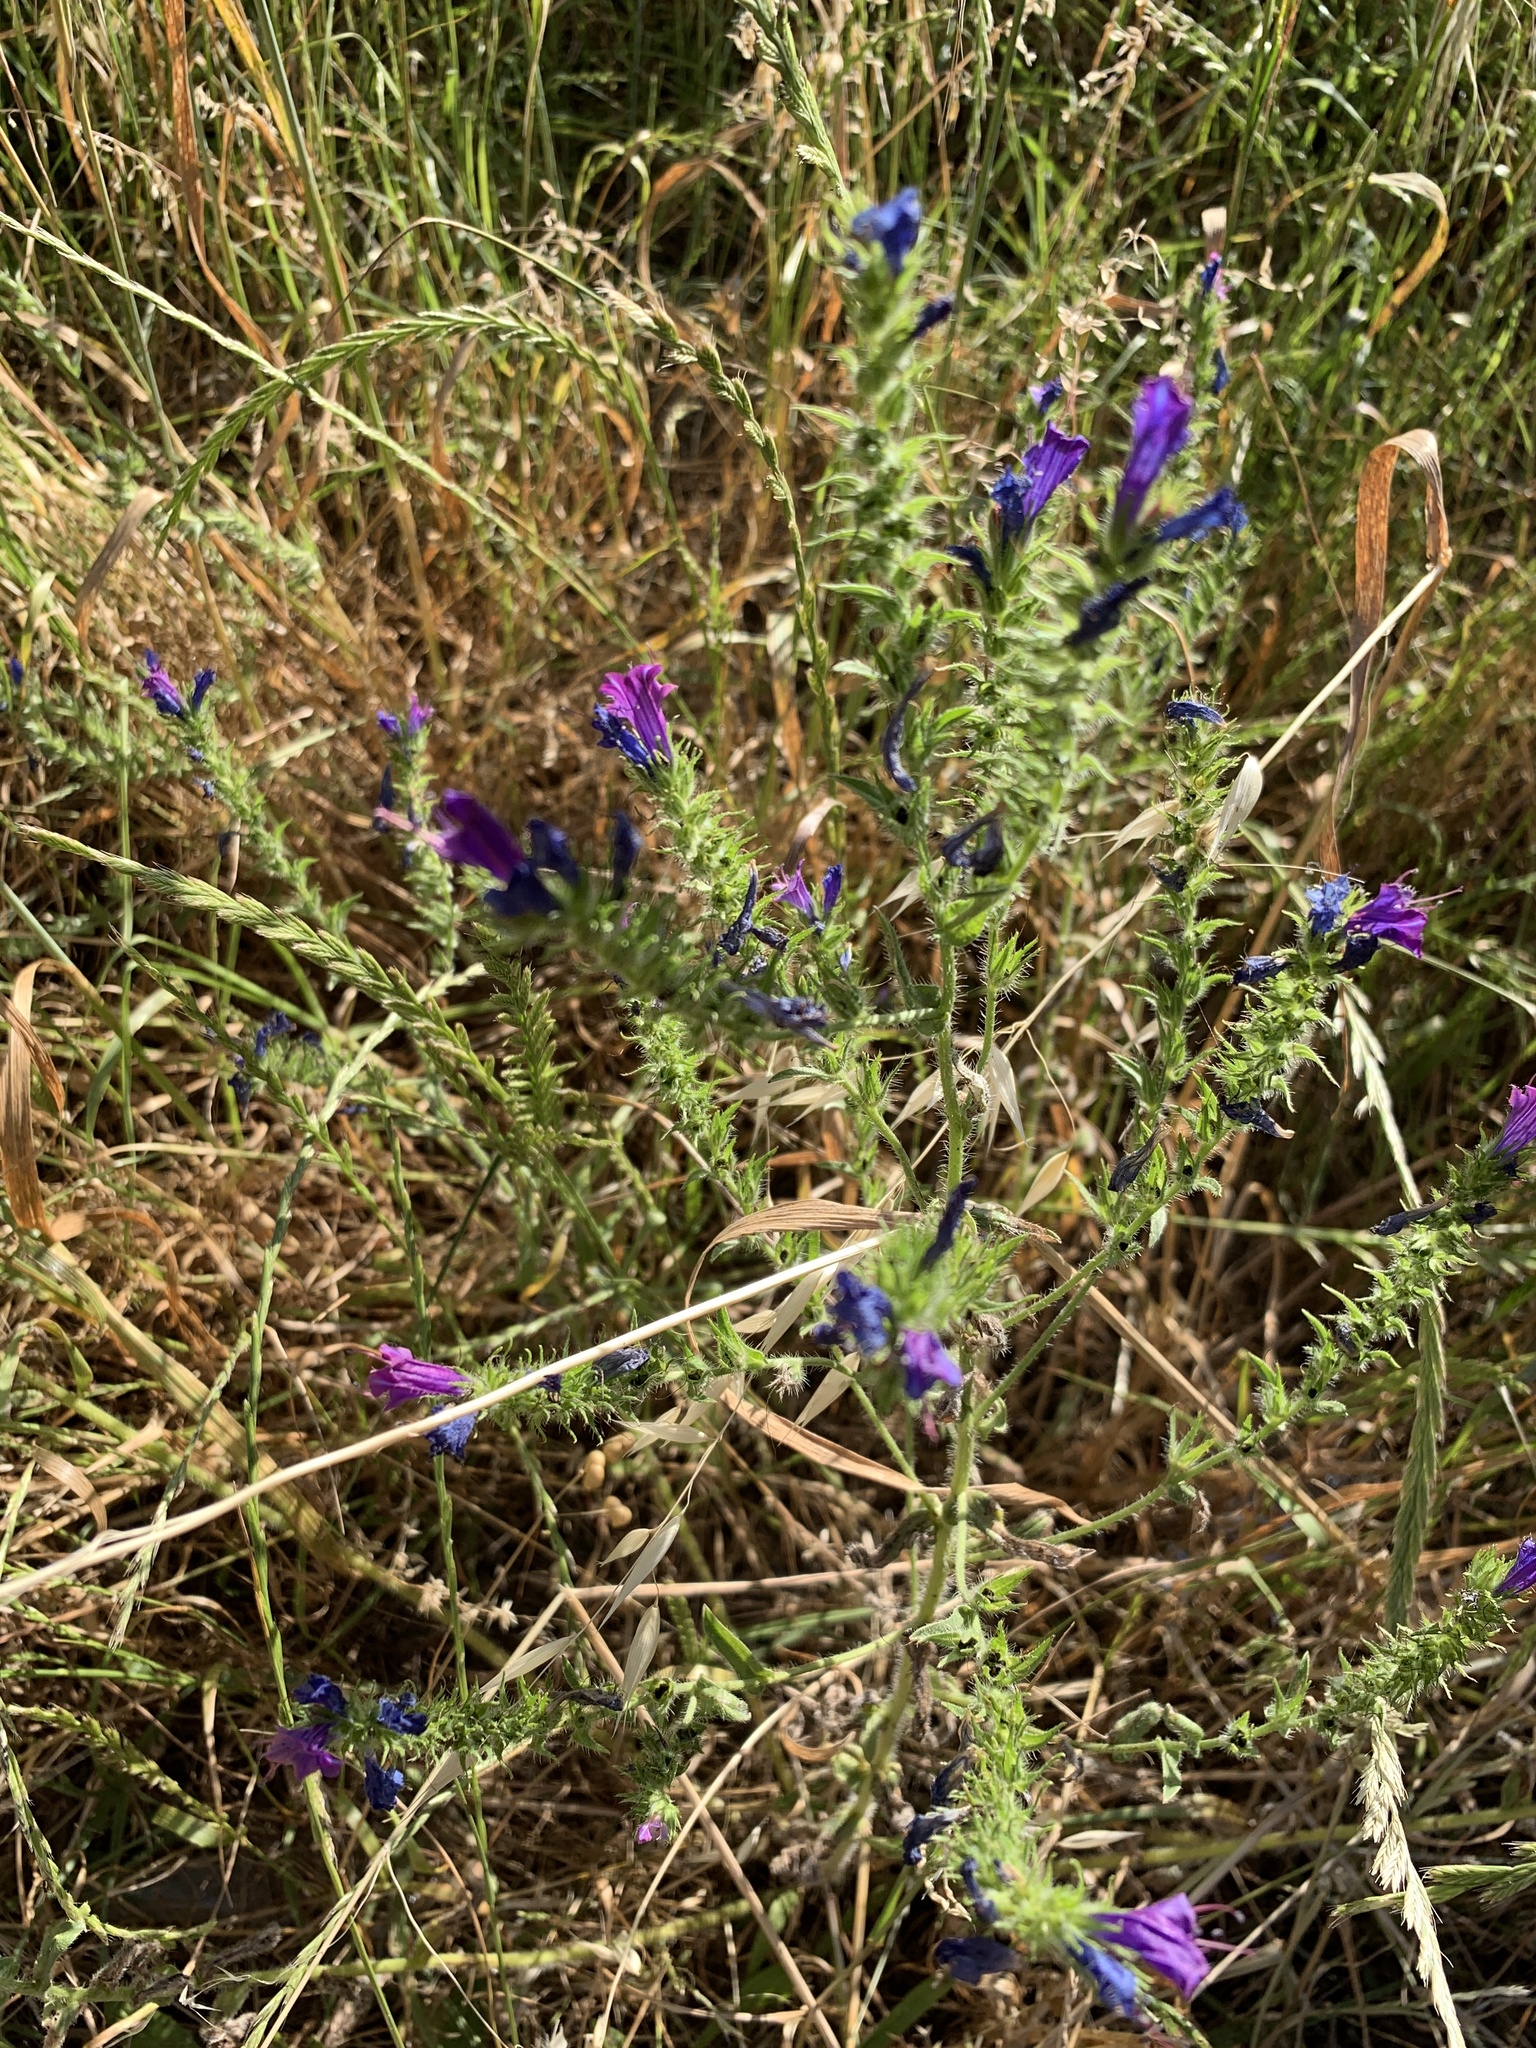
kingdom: Plantae
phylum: Tracheophyta
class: Magnoliopsida
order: Boraginales
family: Boraginaceae
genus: Echium
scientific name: Echium plantagineum
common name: Purple viper's-bugloss
